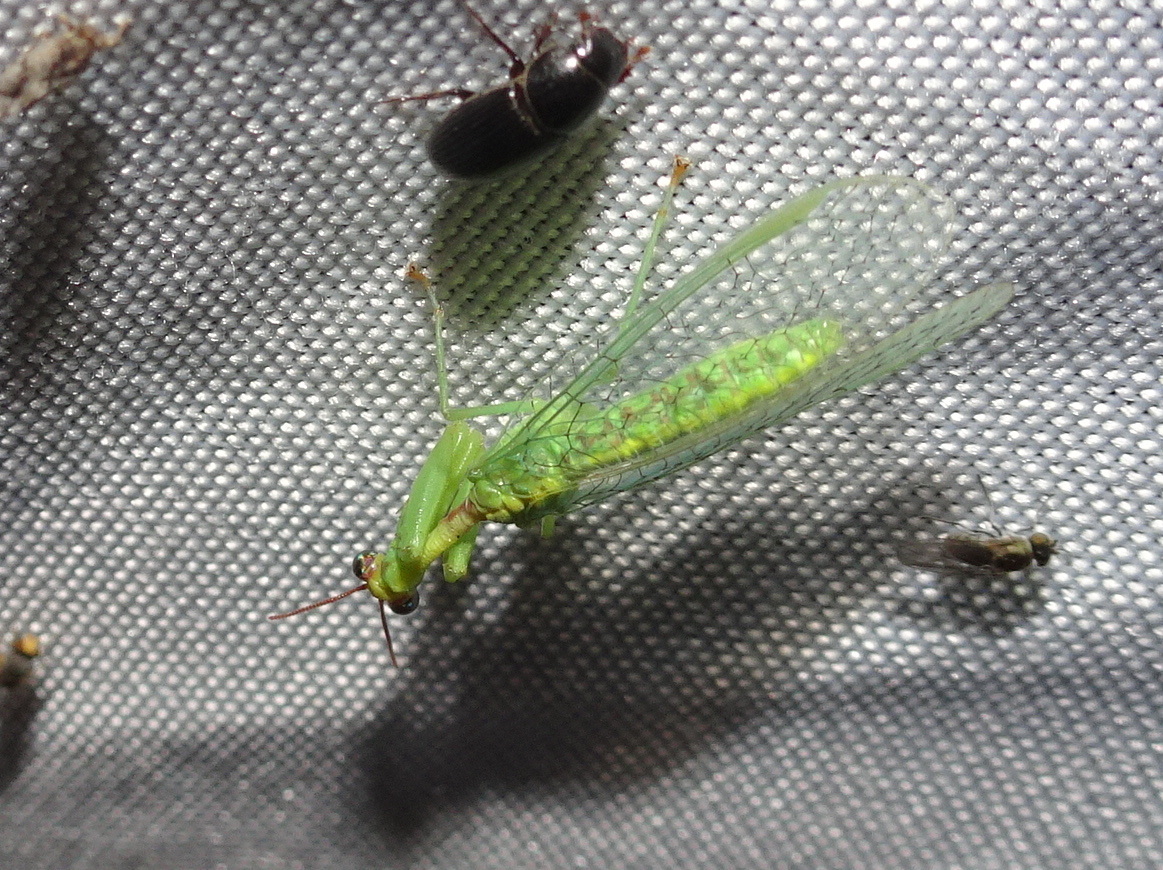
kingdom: Animalia
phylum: Arthropoda
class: Insecta
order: Neuroptera
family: Mantispidae
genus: Zeugomantispa
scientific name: Zeugomantispa minuta
